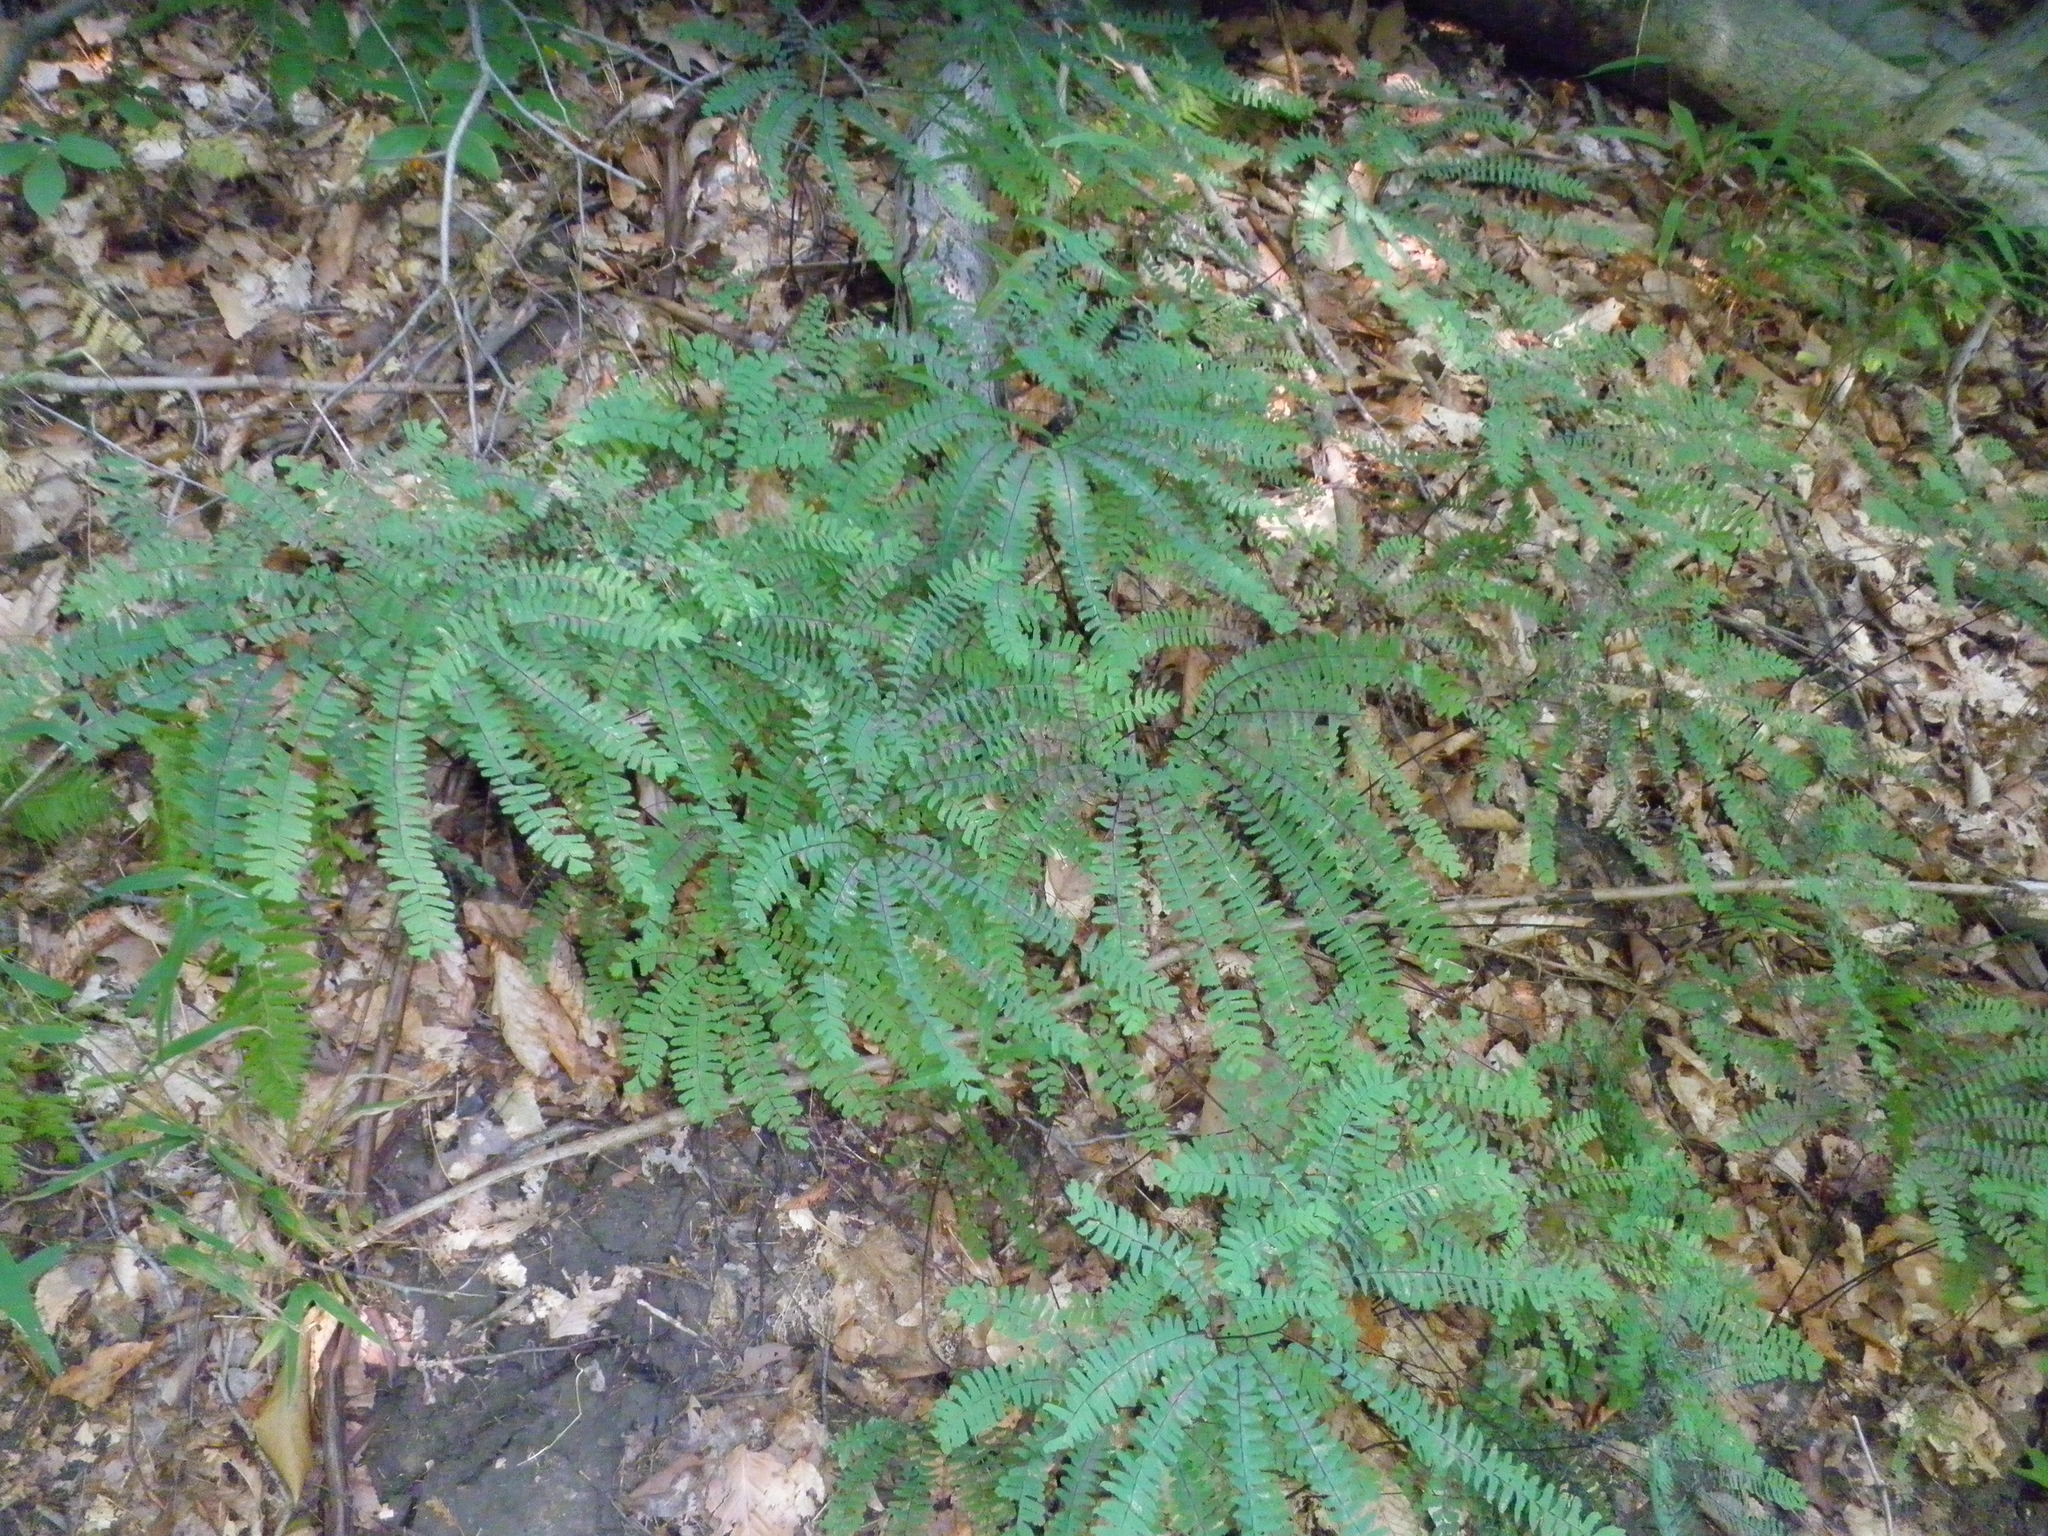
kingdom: Plantae
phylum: Tracheophyta
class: Polypodiopsida
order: Polypodiales
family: Pteridaceae
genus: Adiantum
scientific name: Adiantum pedatum
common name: Five-finger fern
